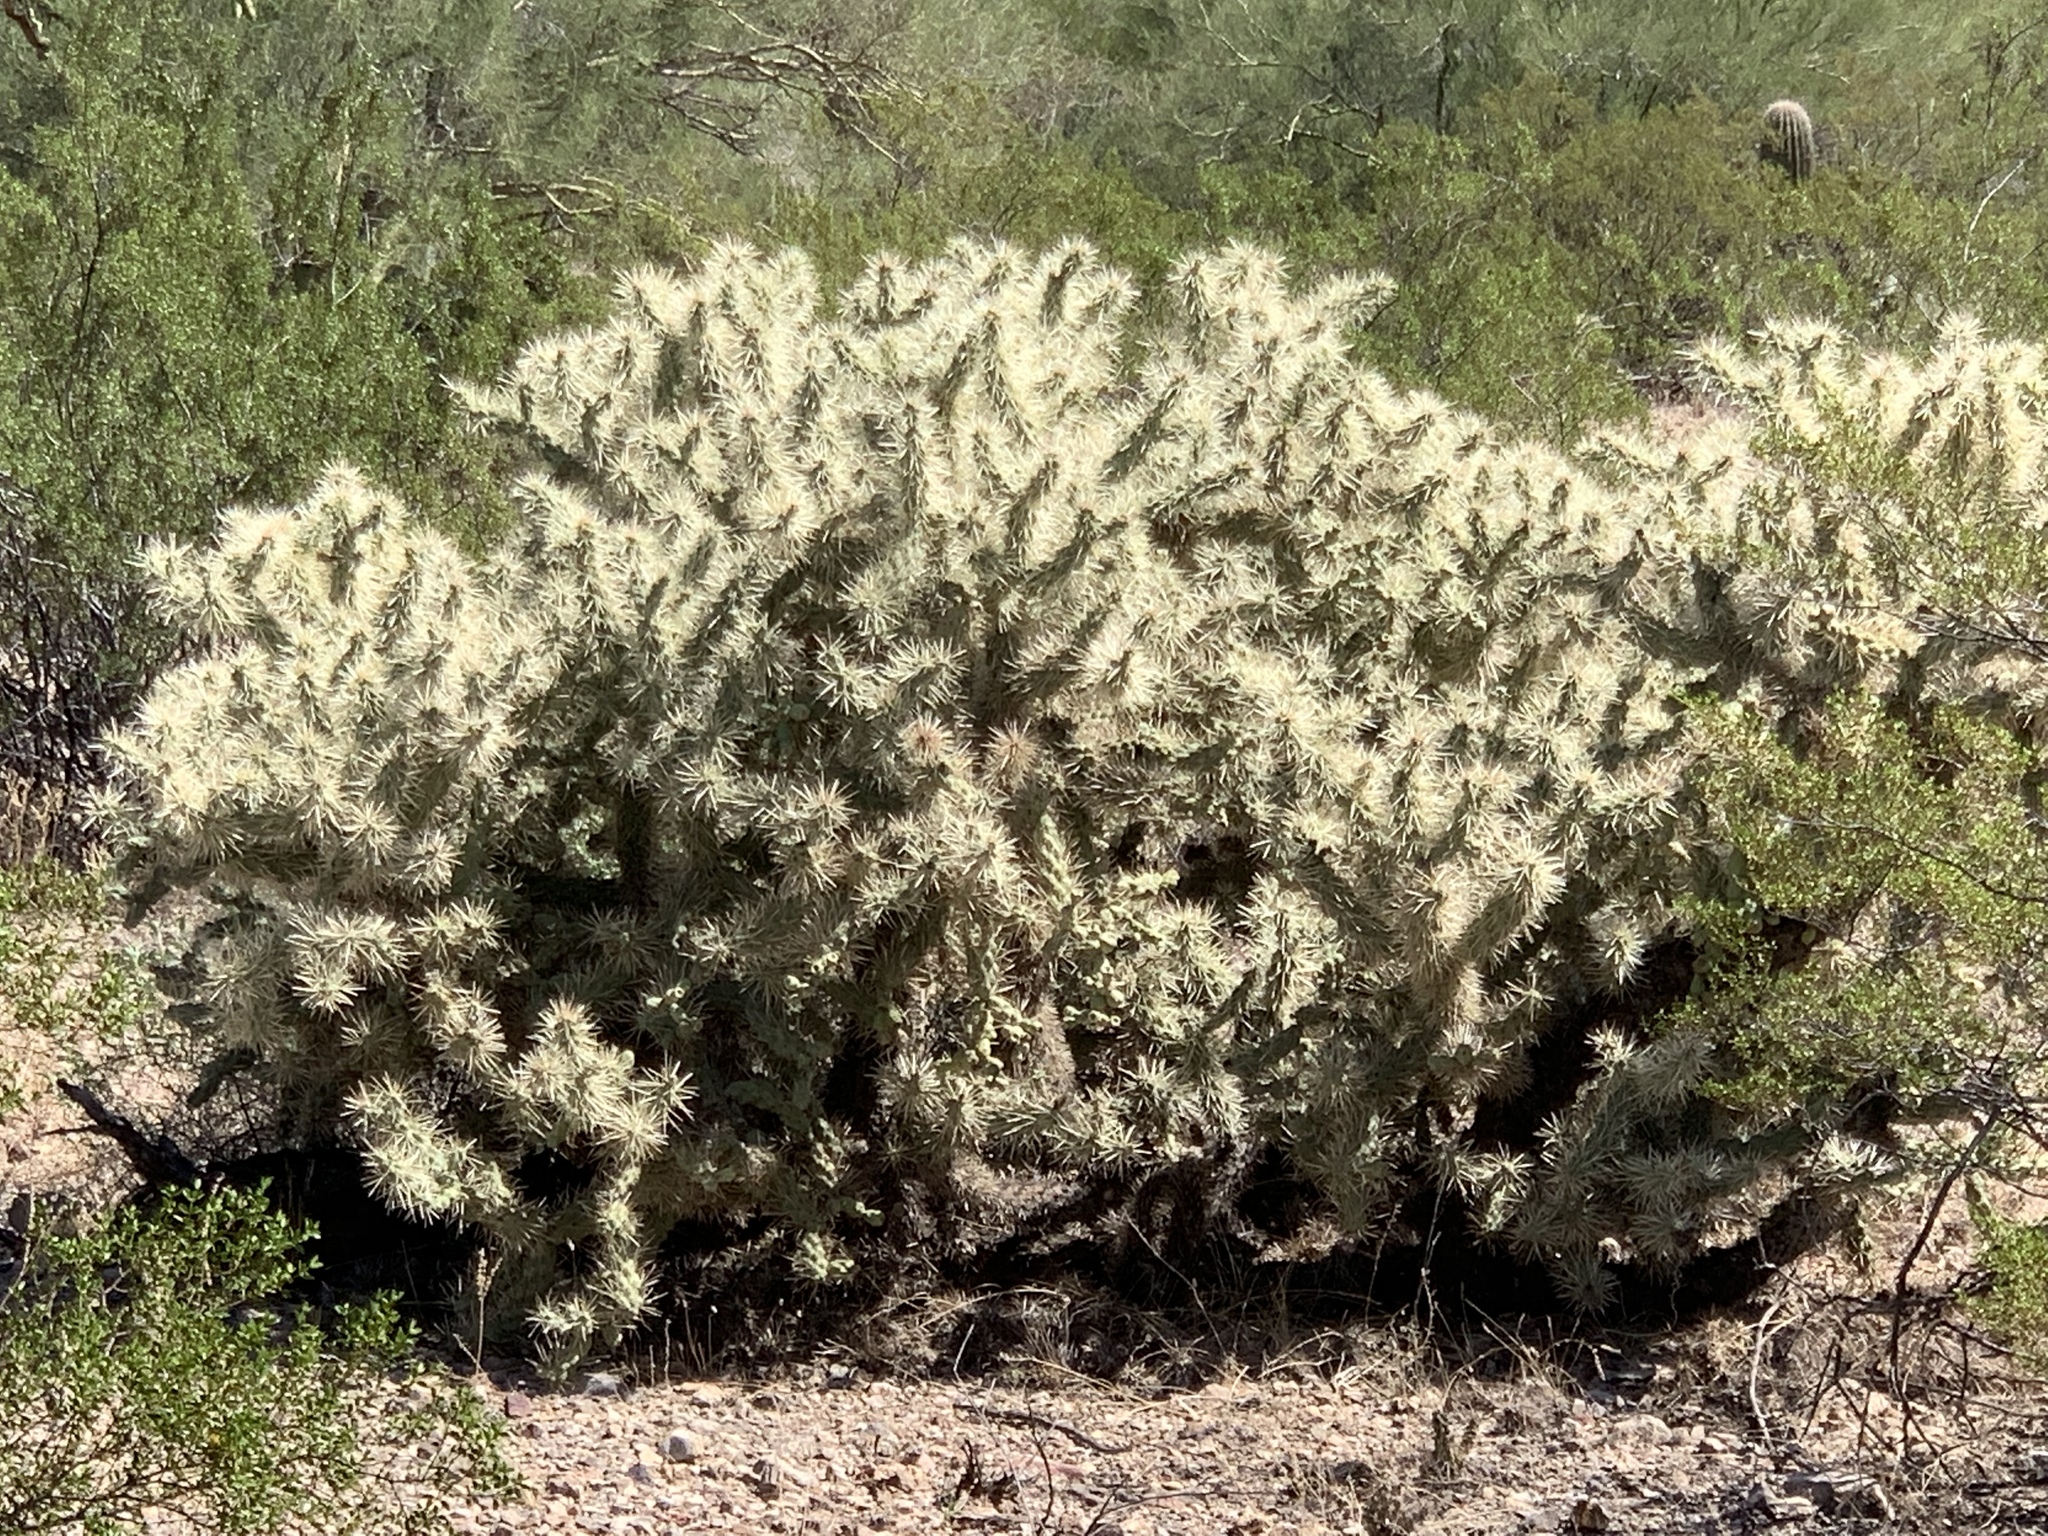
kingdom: Plantae
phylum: Tracheophyta
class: Magnoliopsida
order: Caryophyllales
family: Cactaceae
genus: Cylindropuntia
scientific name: Cylindropuntia fulgida
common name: Jumping cholla
